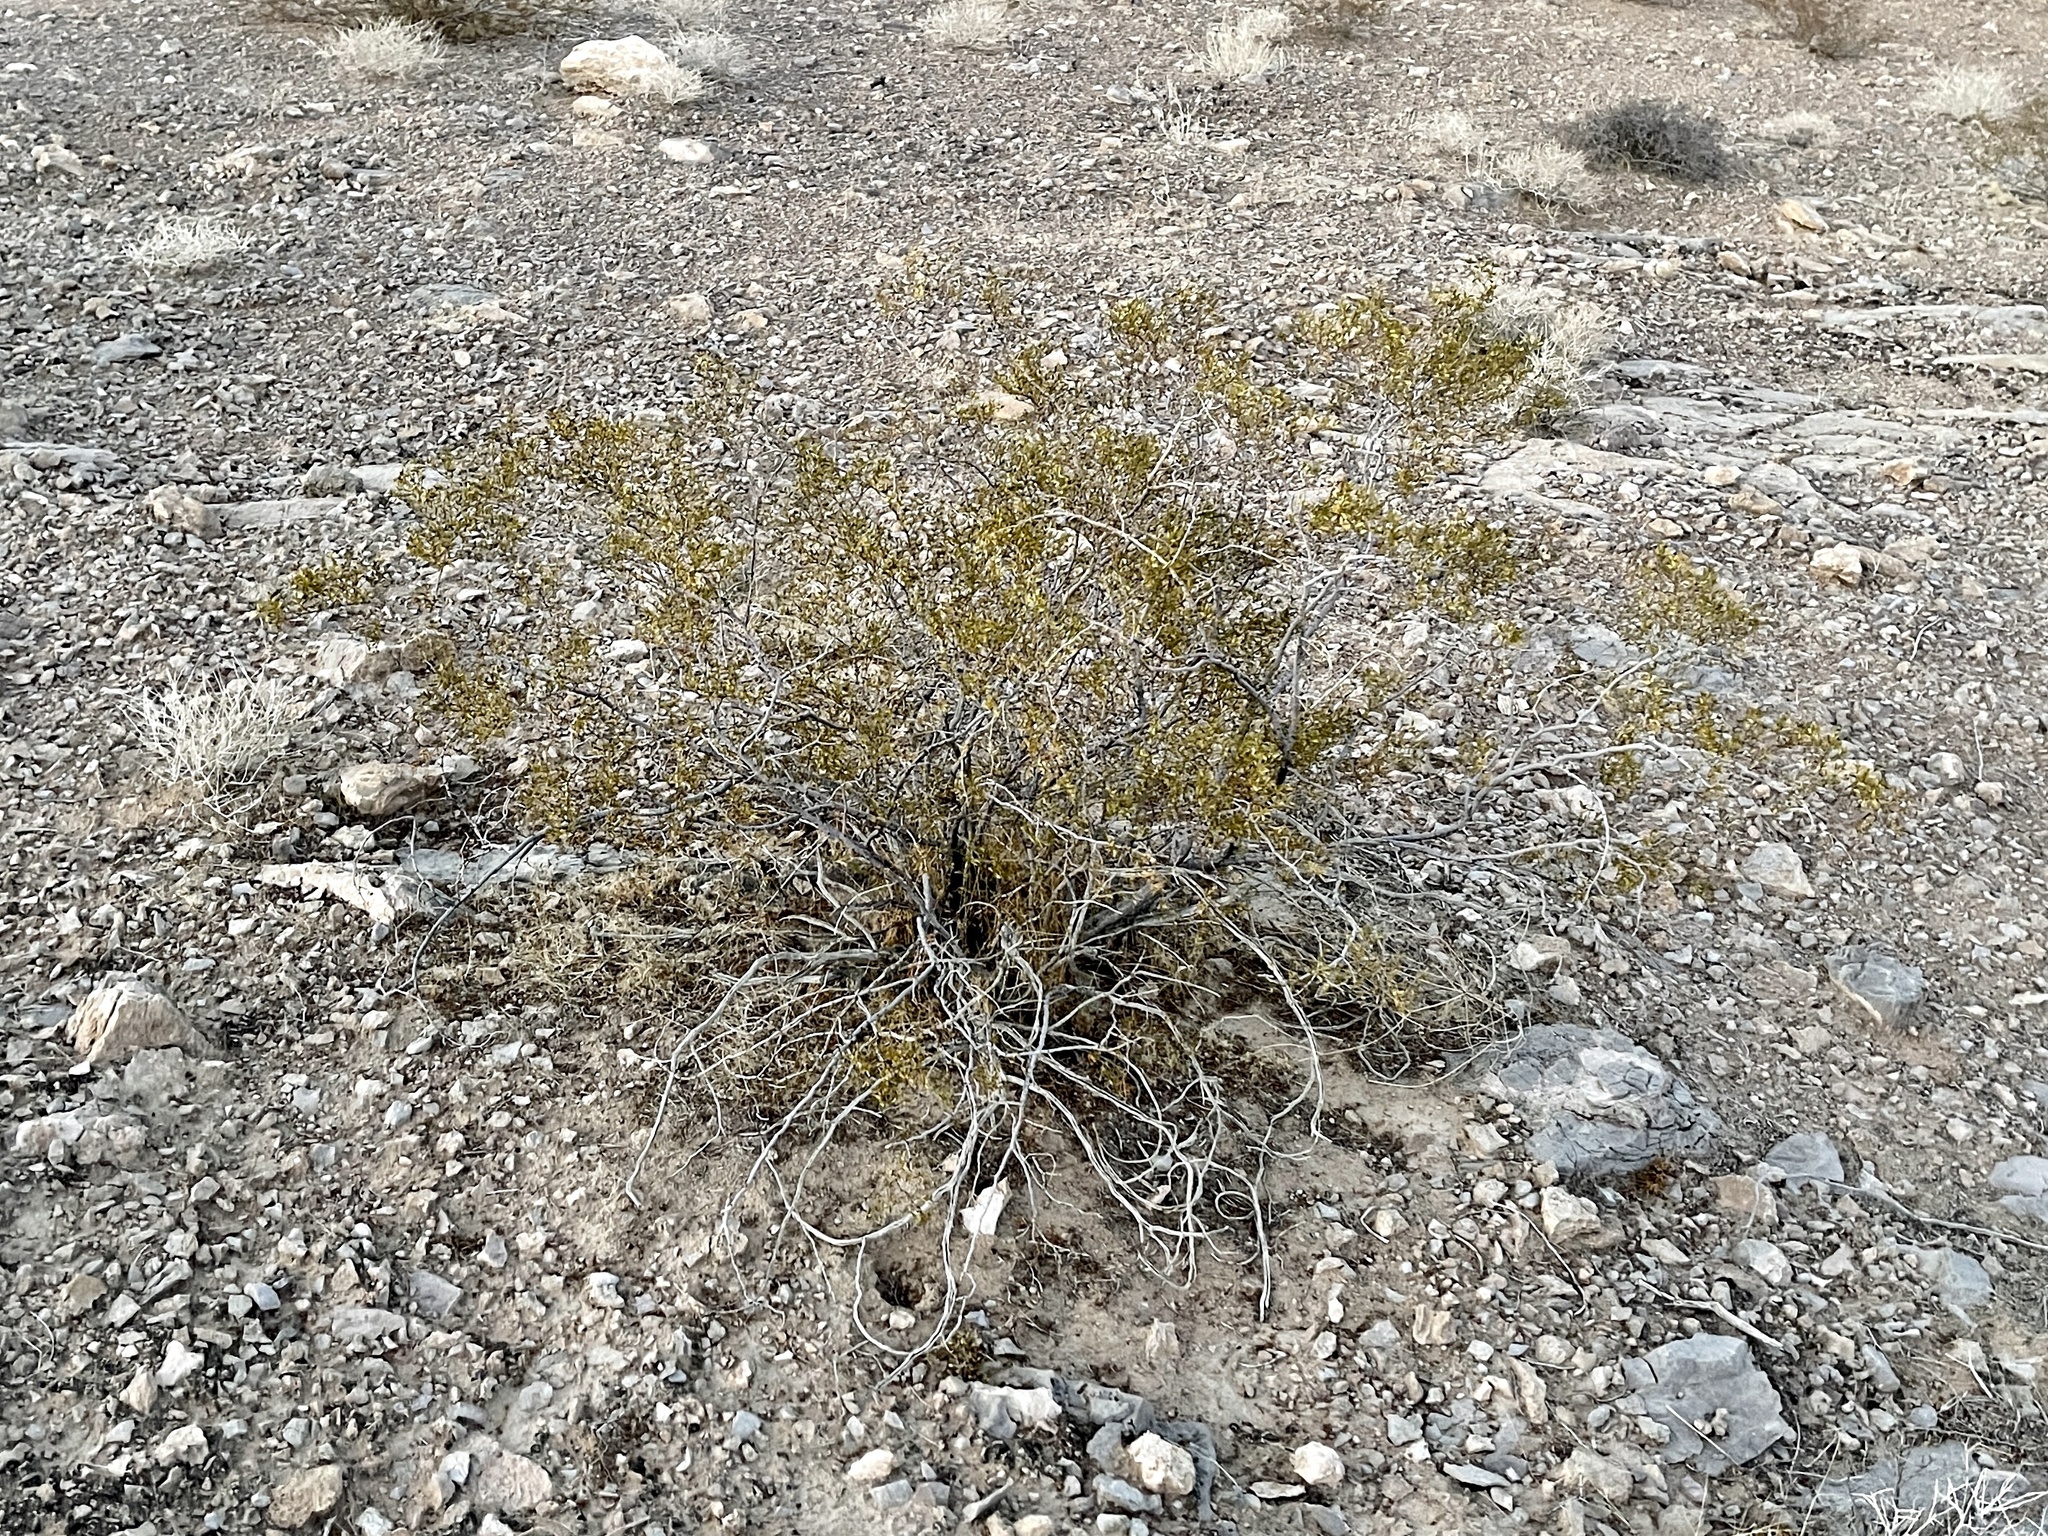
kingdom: Plantae
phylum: Tracheophyta
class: Magnoliopsida
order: Zygophyllales
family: Zygophyllaceae
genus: Larrea
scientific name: Larrea tridentata
